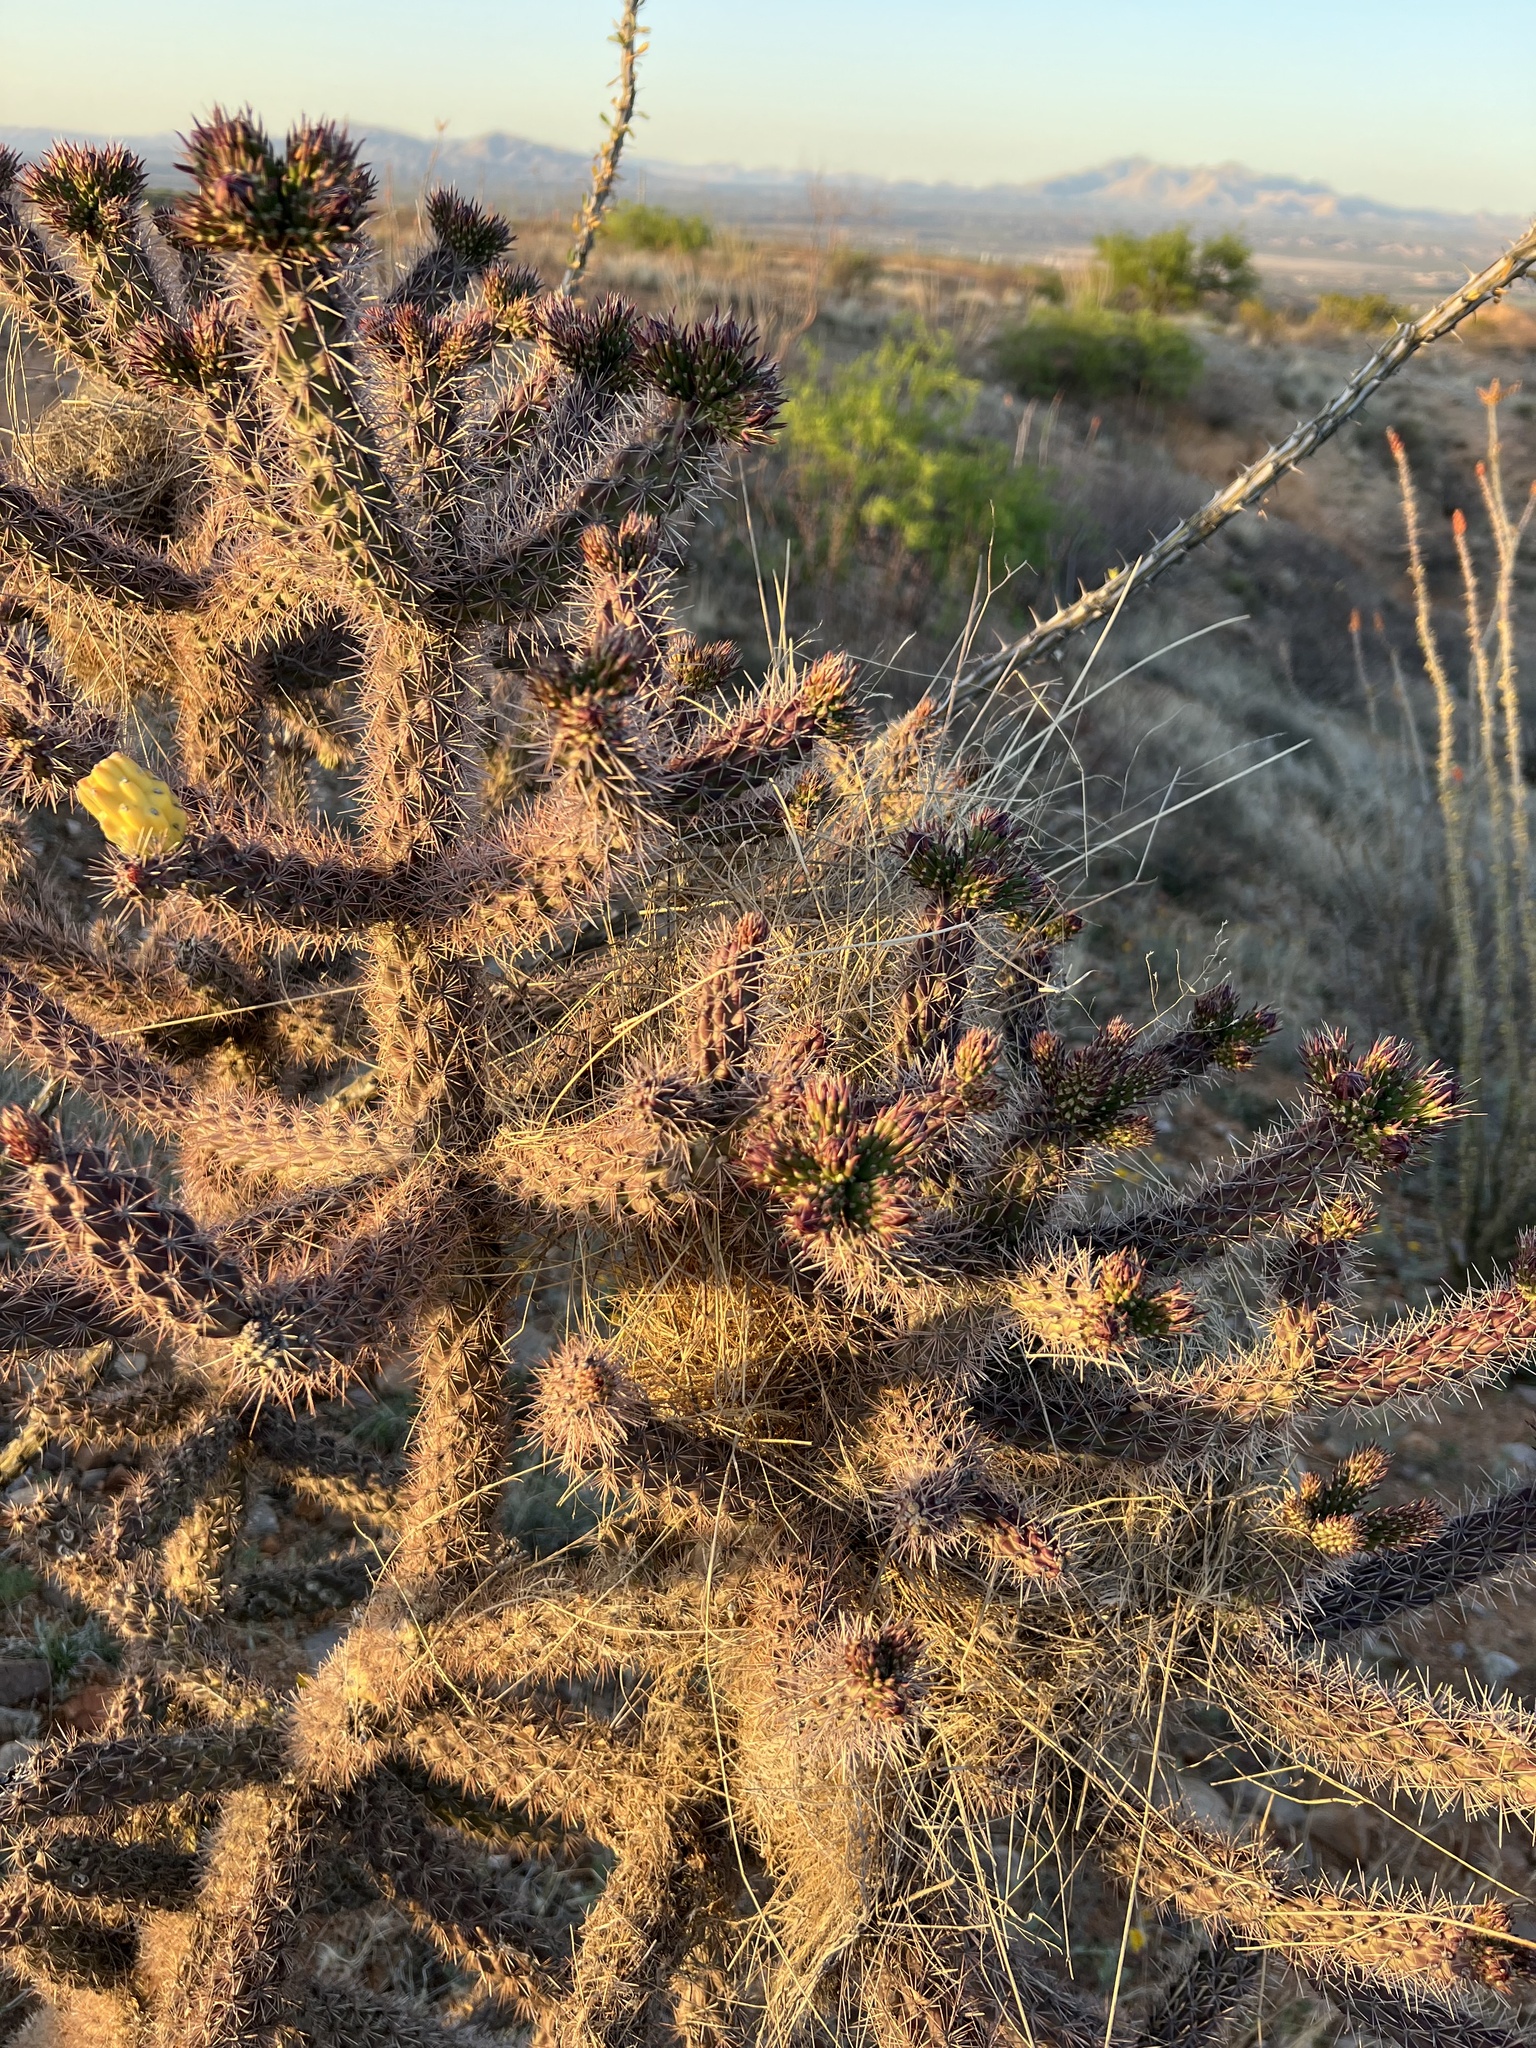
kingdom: Plantae
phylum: Tracheophyta
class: Magnoliopsida
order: Caryophyllales
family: Cactaceae
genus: Cylindropuntia
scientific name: Cylindropuntia imbricata
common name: Candelabrum cactus
